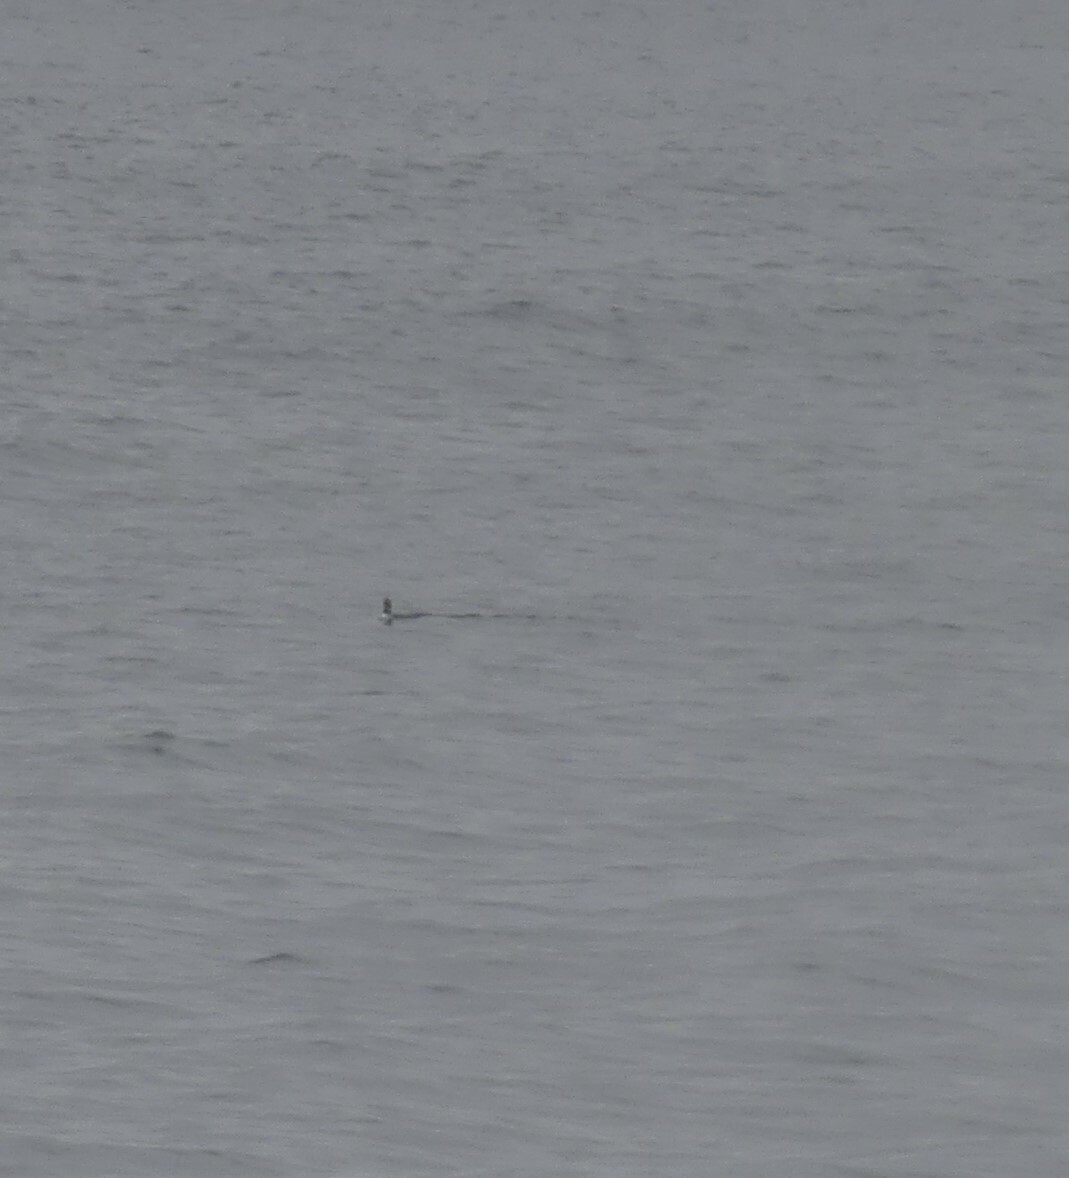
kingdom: Animalia
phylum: Chordata
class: Aves
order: Gaviiformes
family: Gaviidae
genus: Gavia
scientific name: Gavia immer
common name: Common loon
